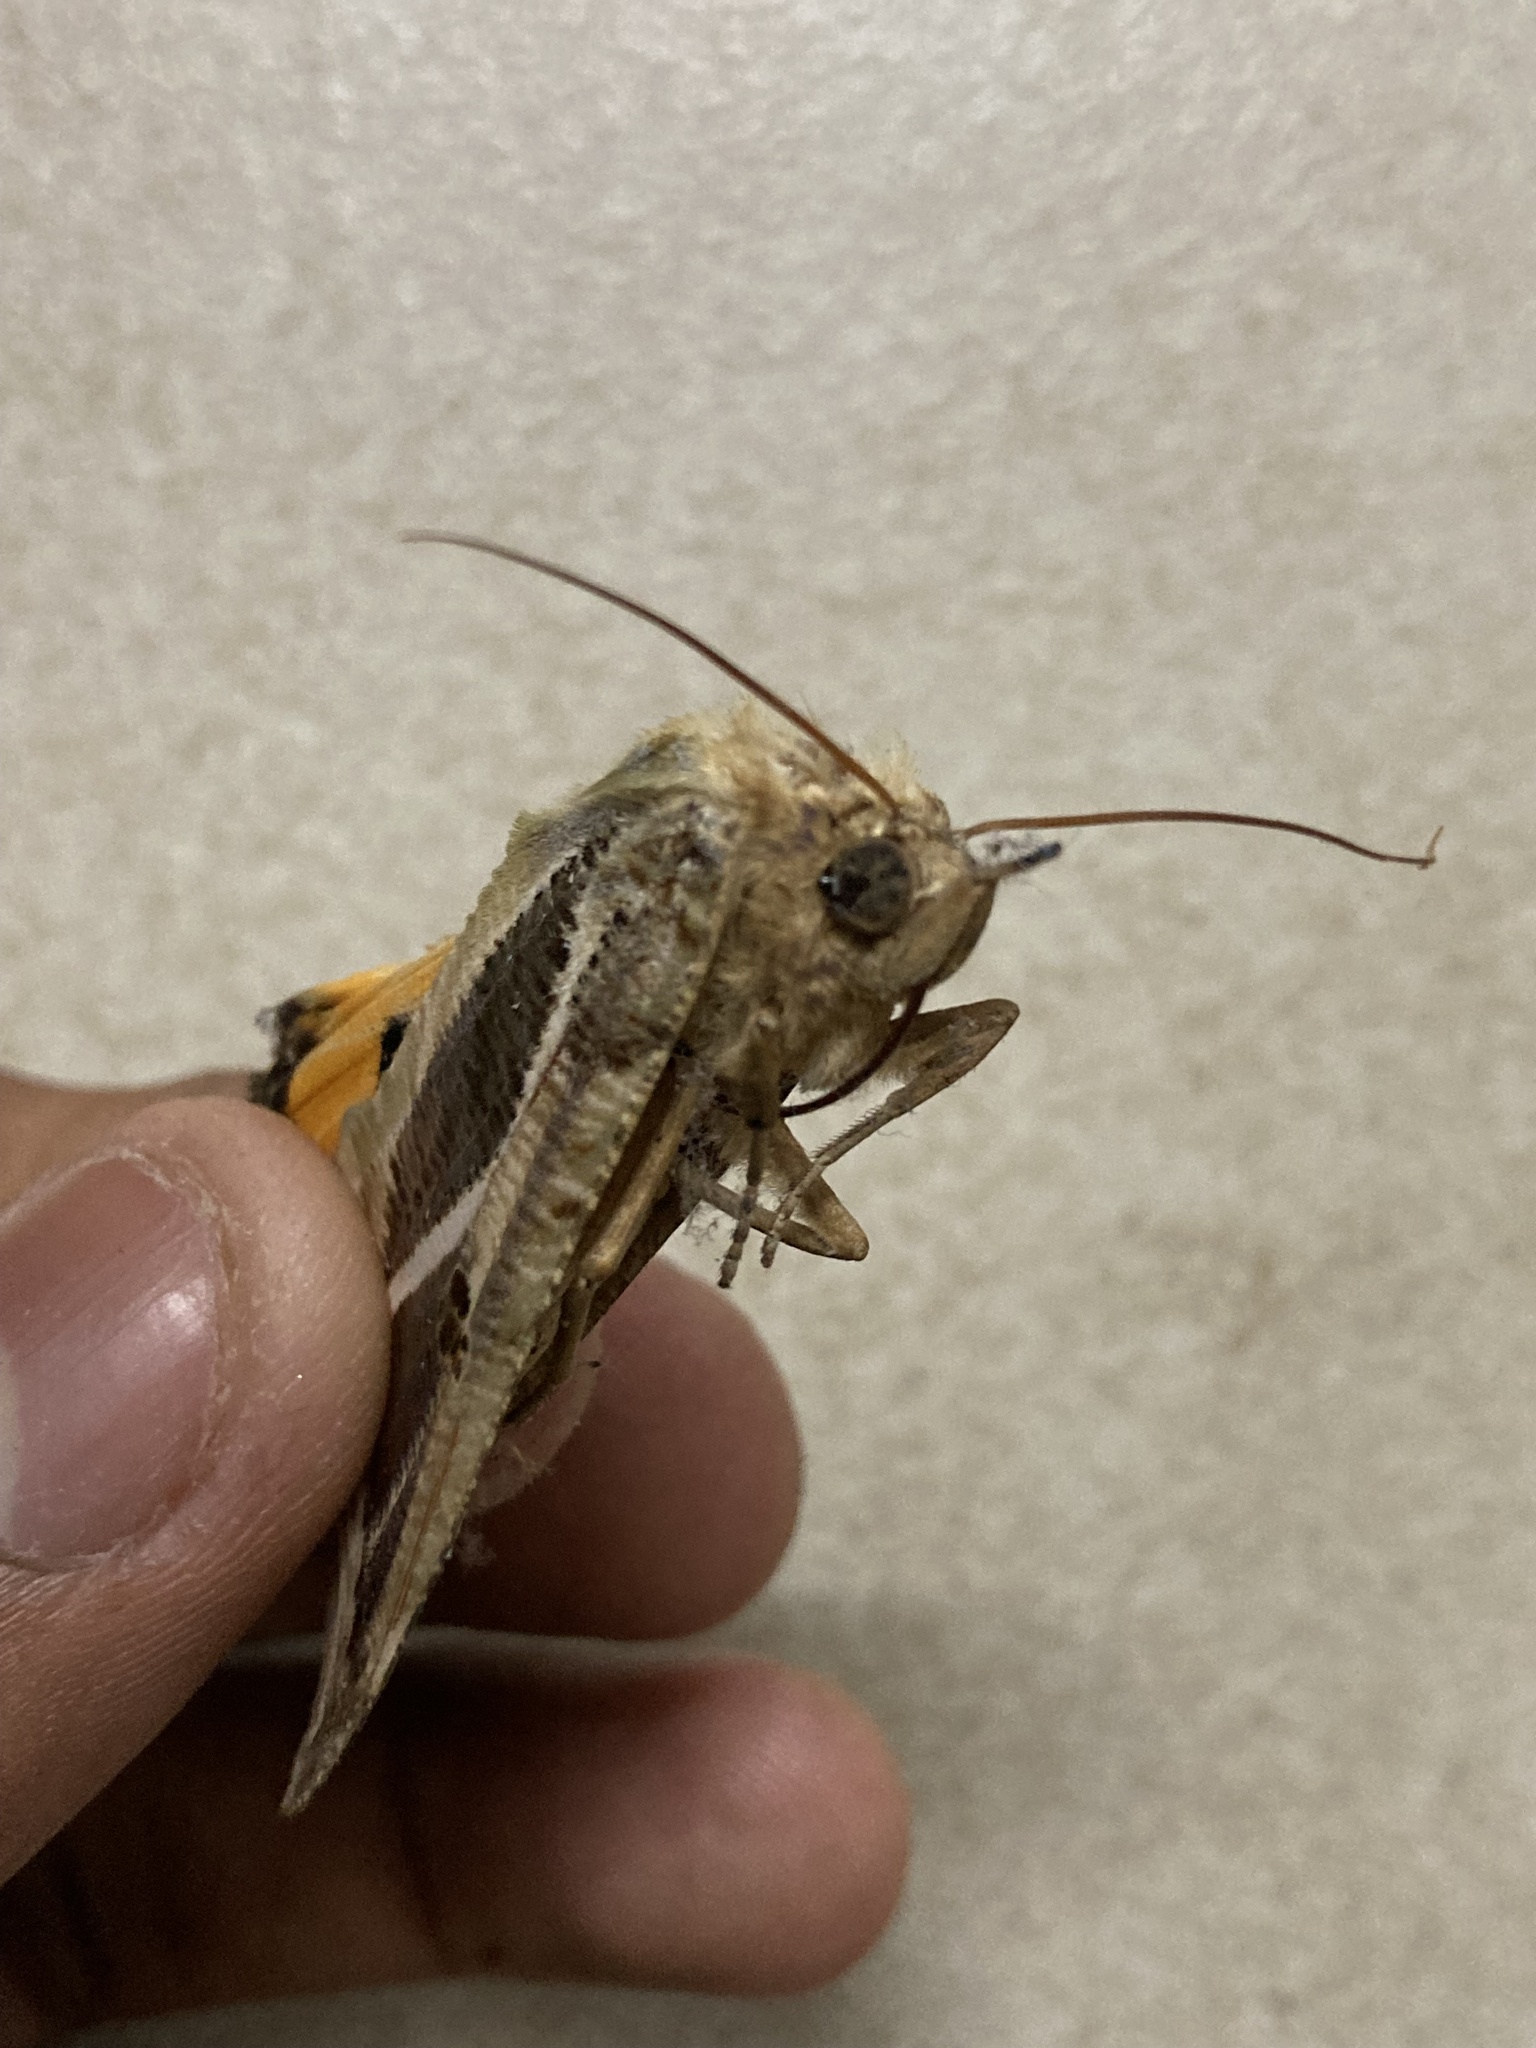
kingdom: Animalia
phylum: Arthropoda
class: Insecta
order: Lepidoptera
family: Erebidae
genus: Eudocima
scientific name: Eudocima materna
